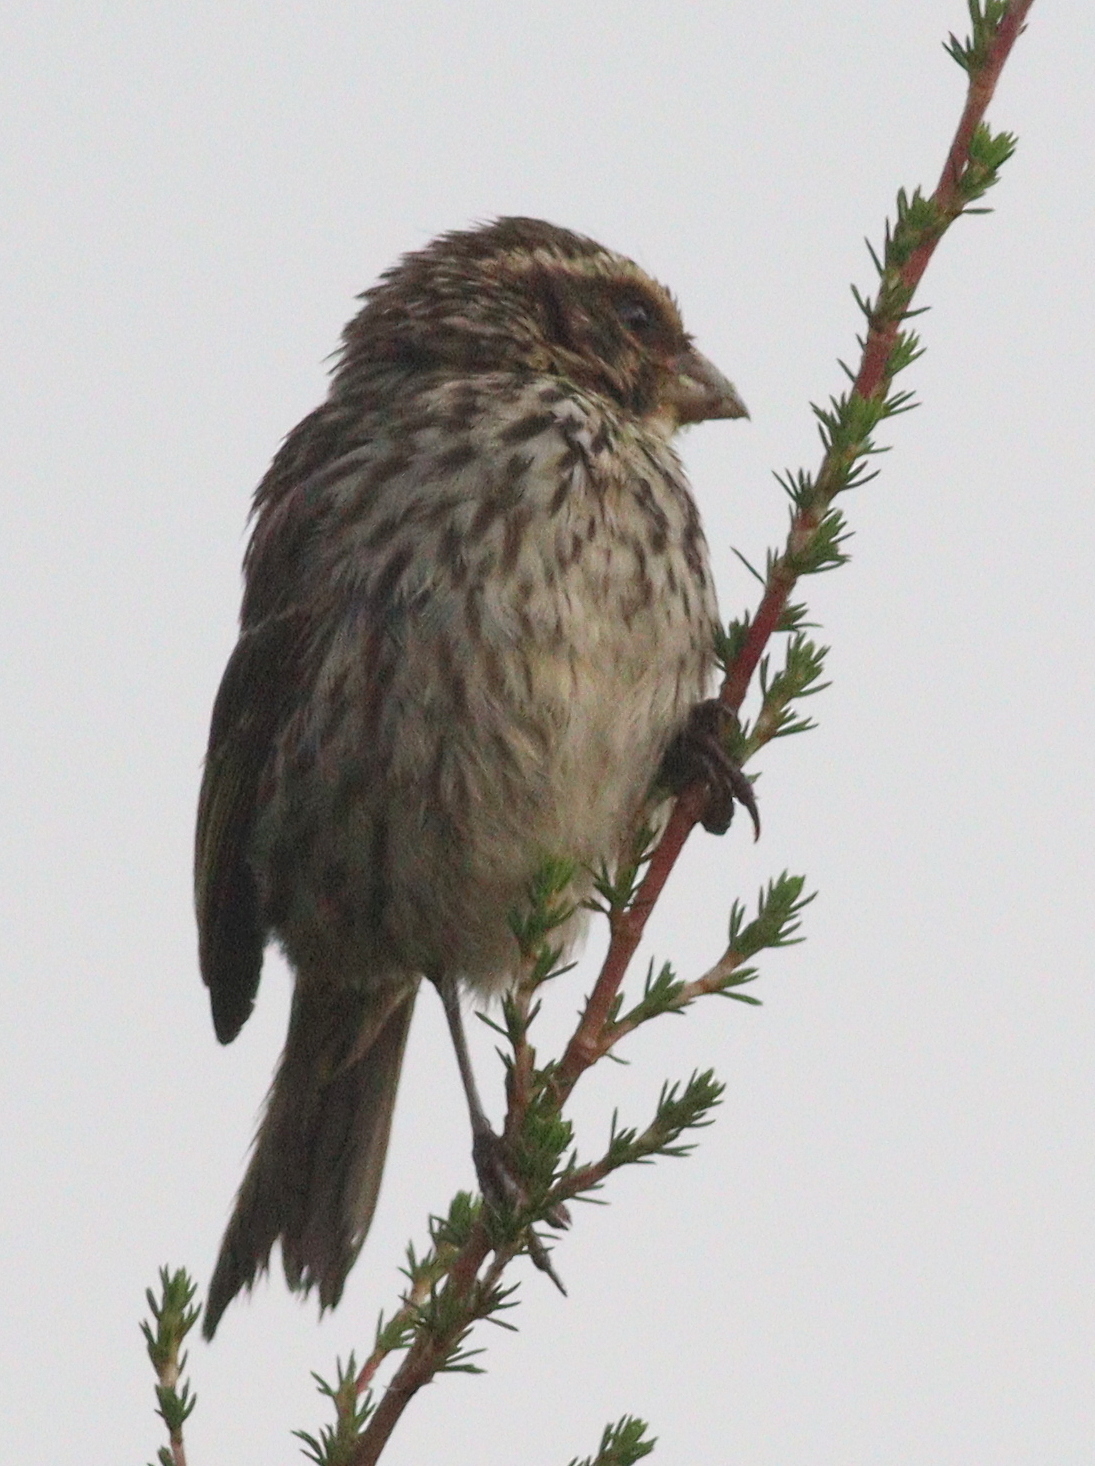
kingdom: Animalia
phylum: Chordata
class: Aves
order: Passeriformes
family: Fringillidae
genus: Crithagra
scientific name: Crithagra striolata
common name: Streaky seedeater
